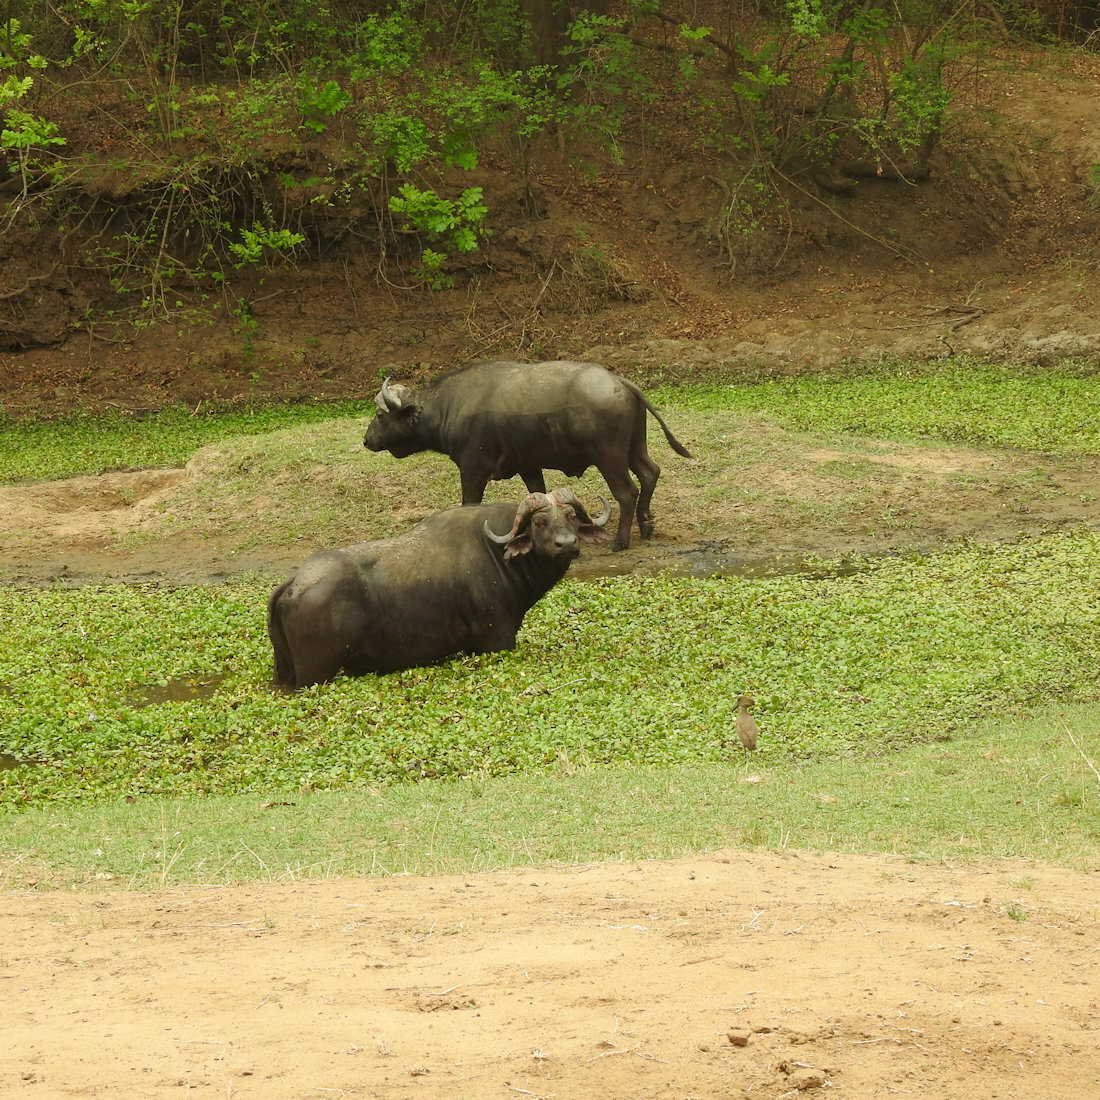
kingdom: Animalia
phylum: Chordata
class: Mammalia
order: Artiodactyla
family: Bovidae
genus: Syncerus
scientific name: Syncerus caffer
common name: African buffalo
